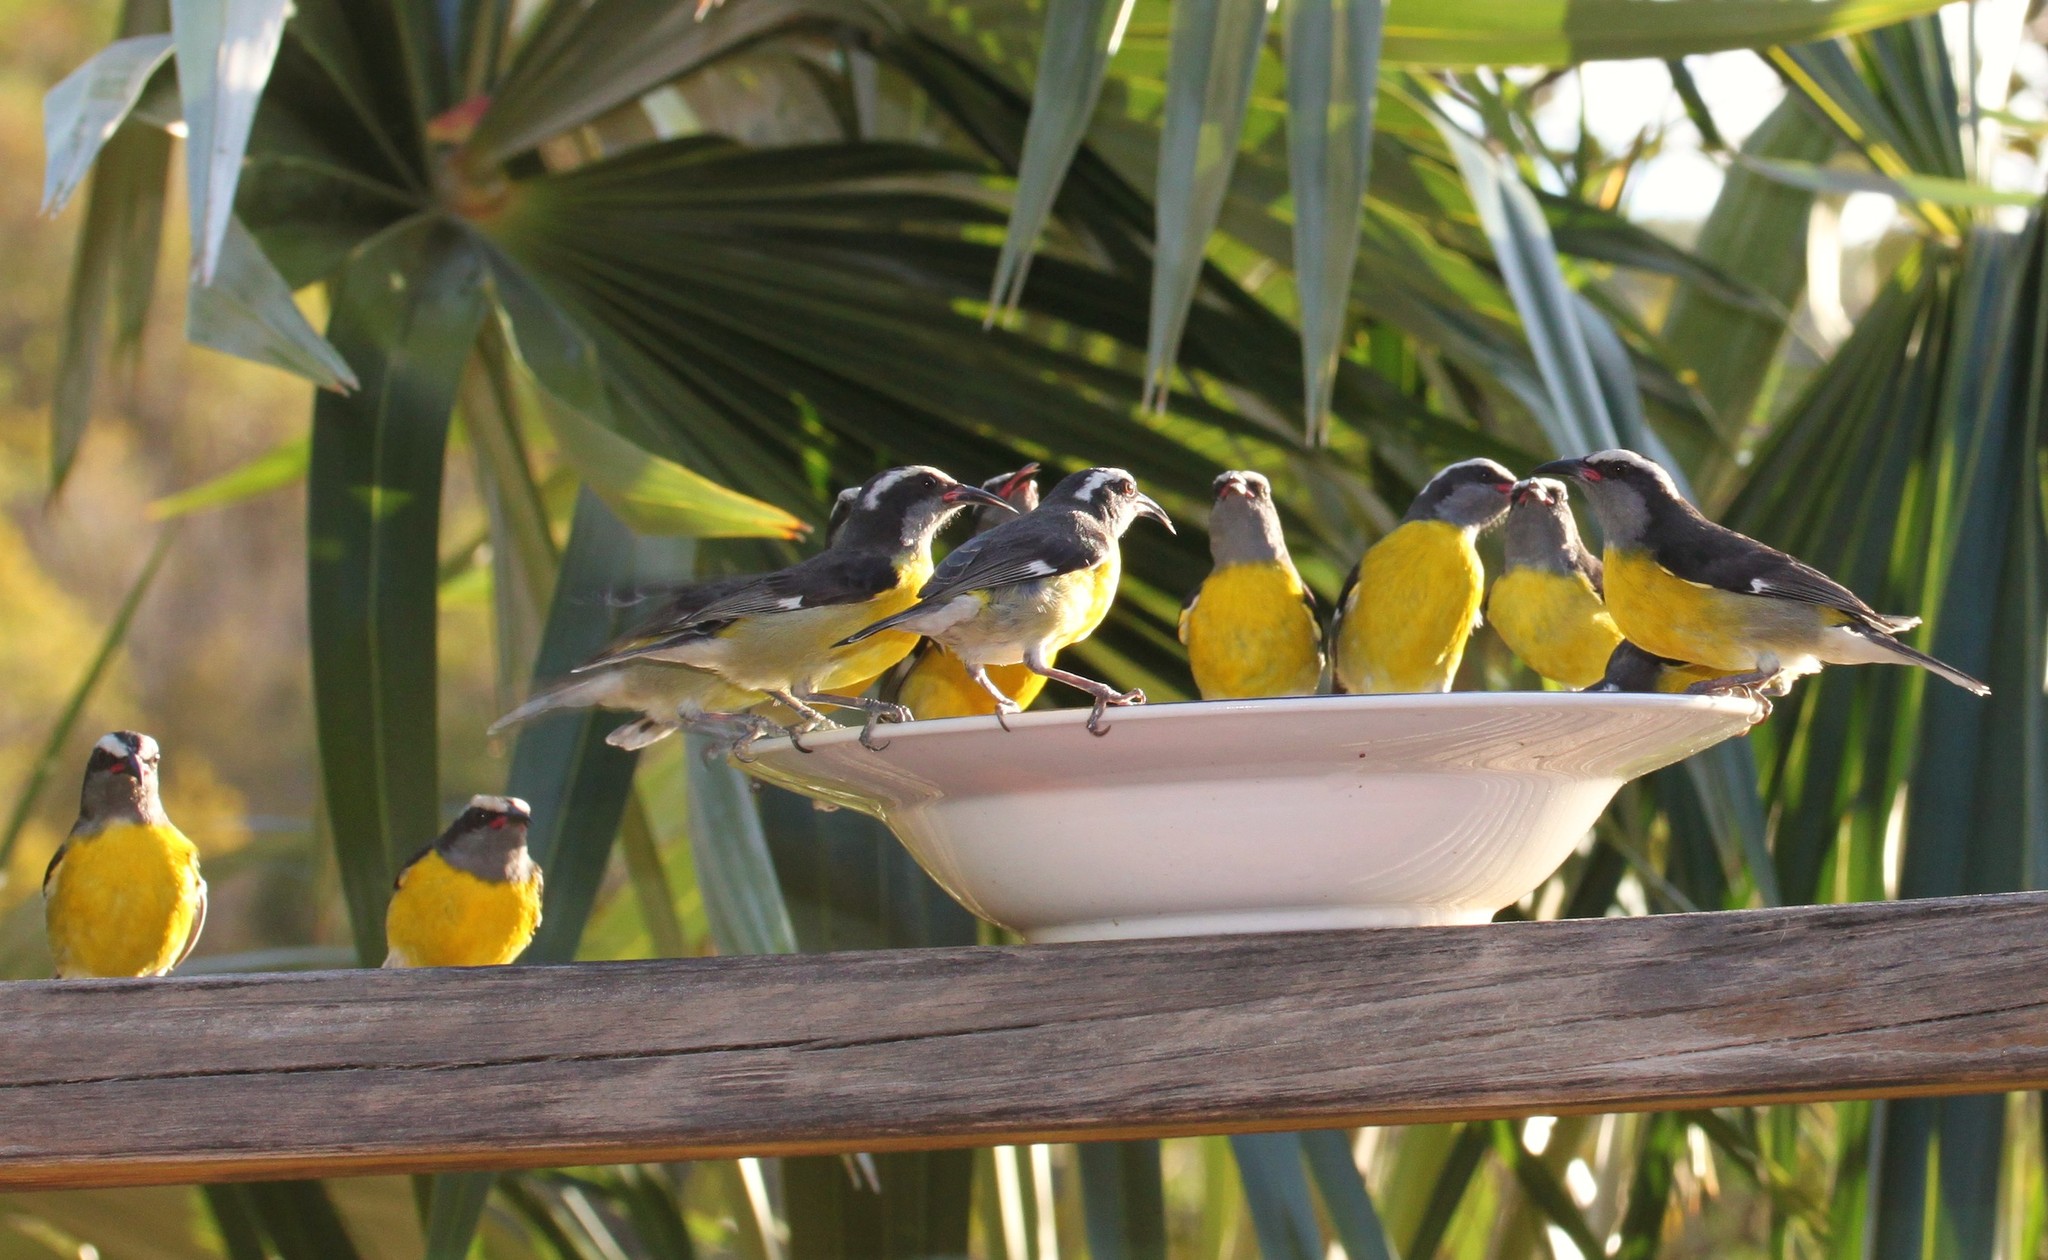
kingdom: Animalia
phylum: Chordata
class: Aves
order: Passeriformes
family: Thraupidae
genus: Coereba
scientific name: Coereba flaveola
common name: Bananaquit
